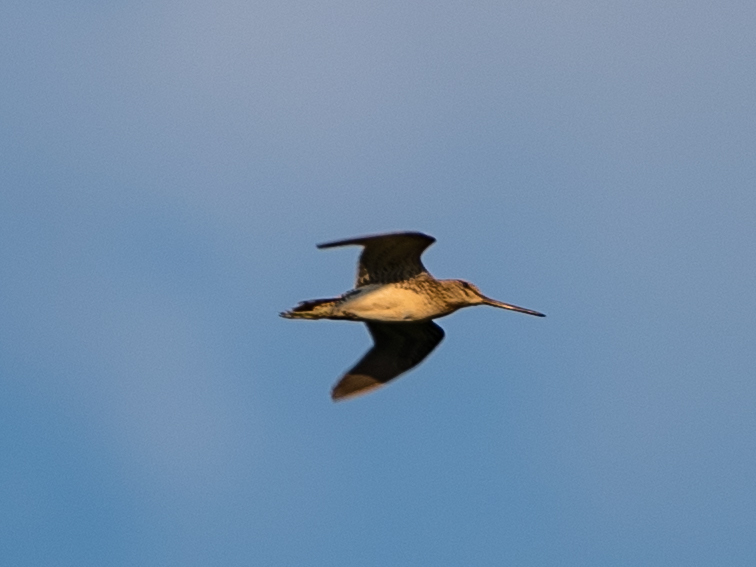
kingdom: Animalia
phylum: Chordata
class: Aves
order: Charadriiformes
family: Scolopacidae
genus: Gallinago
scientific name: Gallinago gallinago
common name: Common snipe
